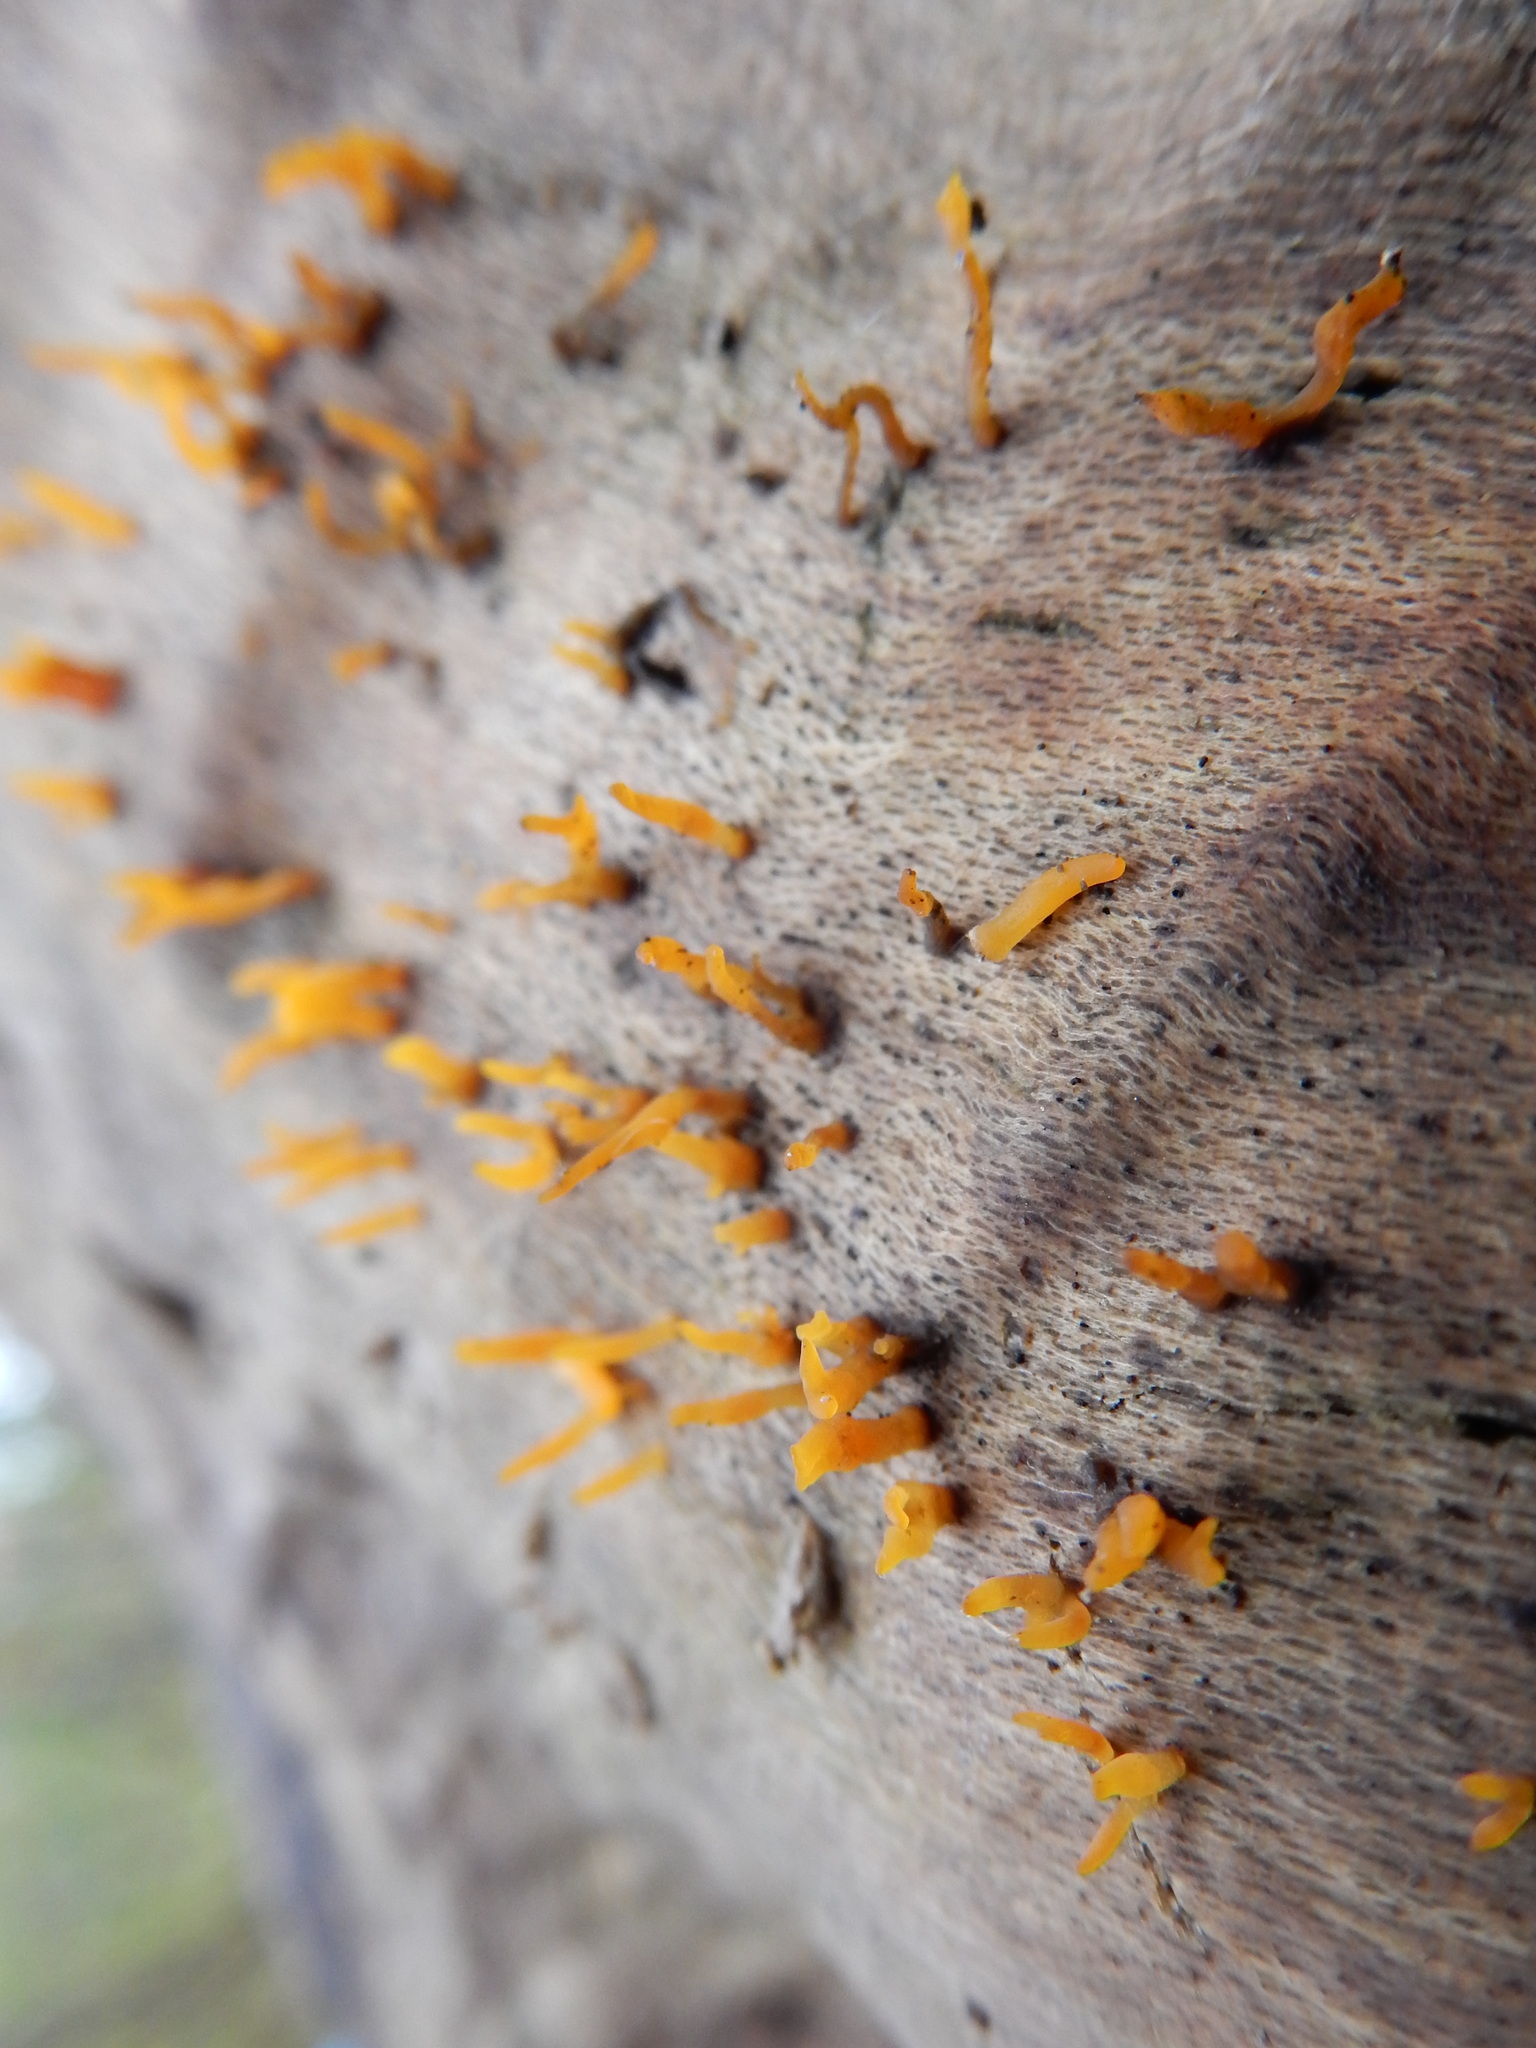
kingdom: Fungi
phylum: Basidiomycota
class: Dacrymycetes
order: Dacrymycetales
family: Dacrymycetaceae
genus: Calocera
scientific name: Calocera cornea
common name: Small stagshorn
